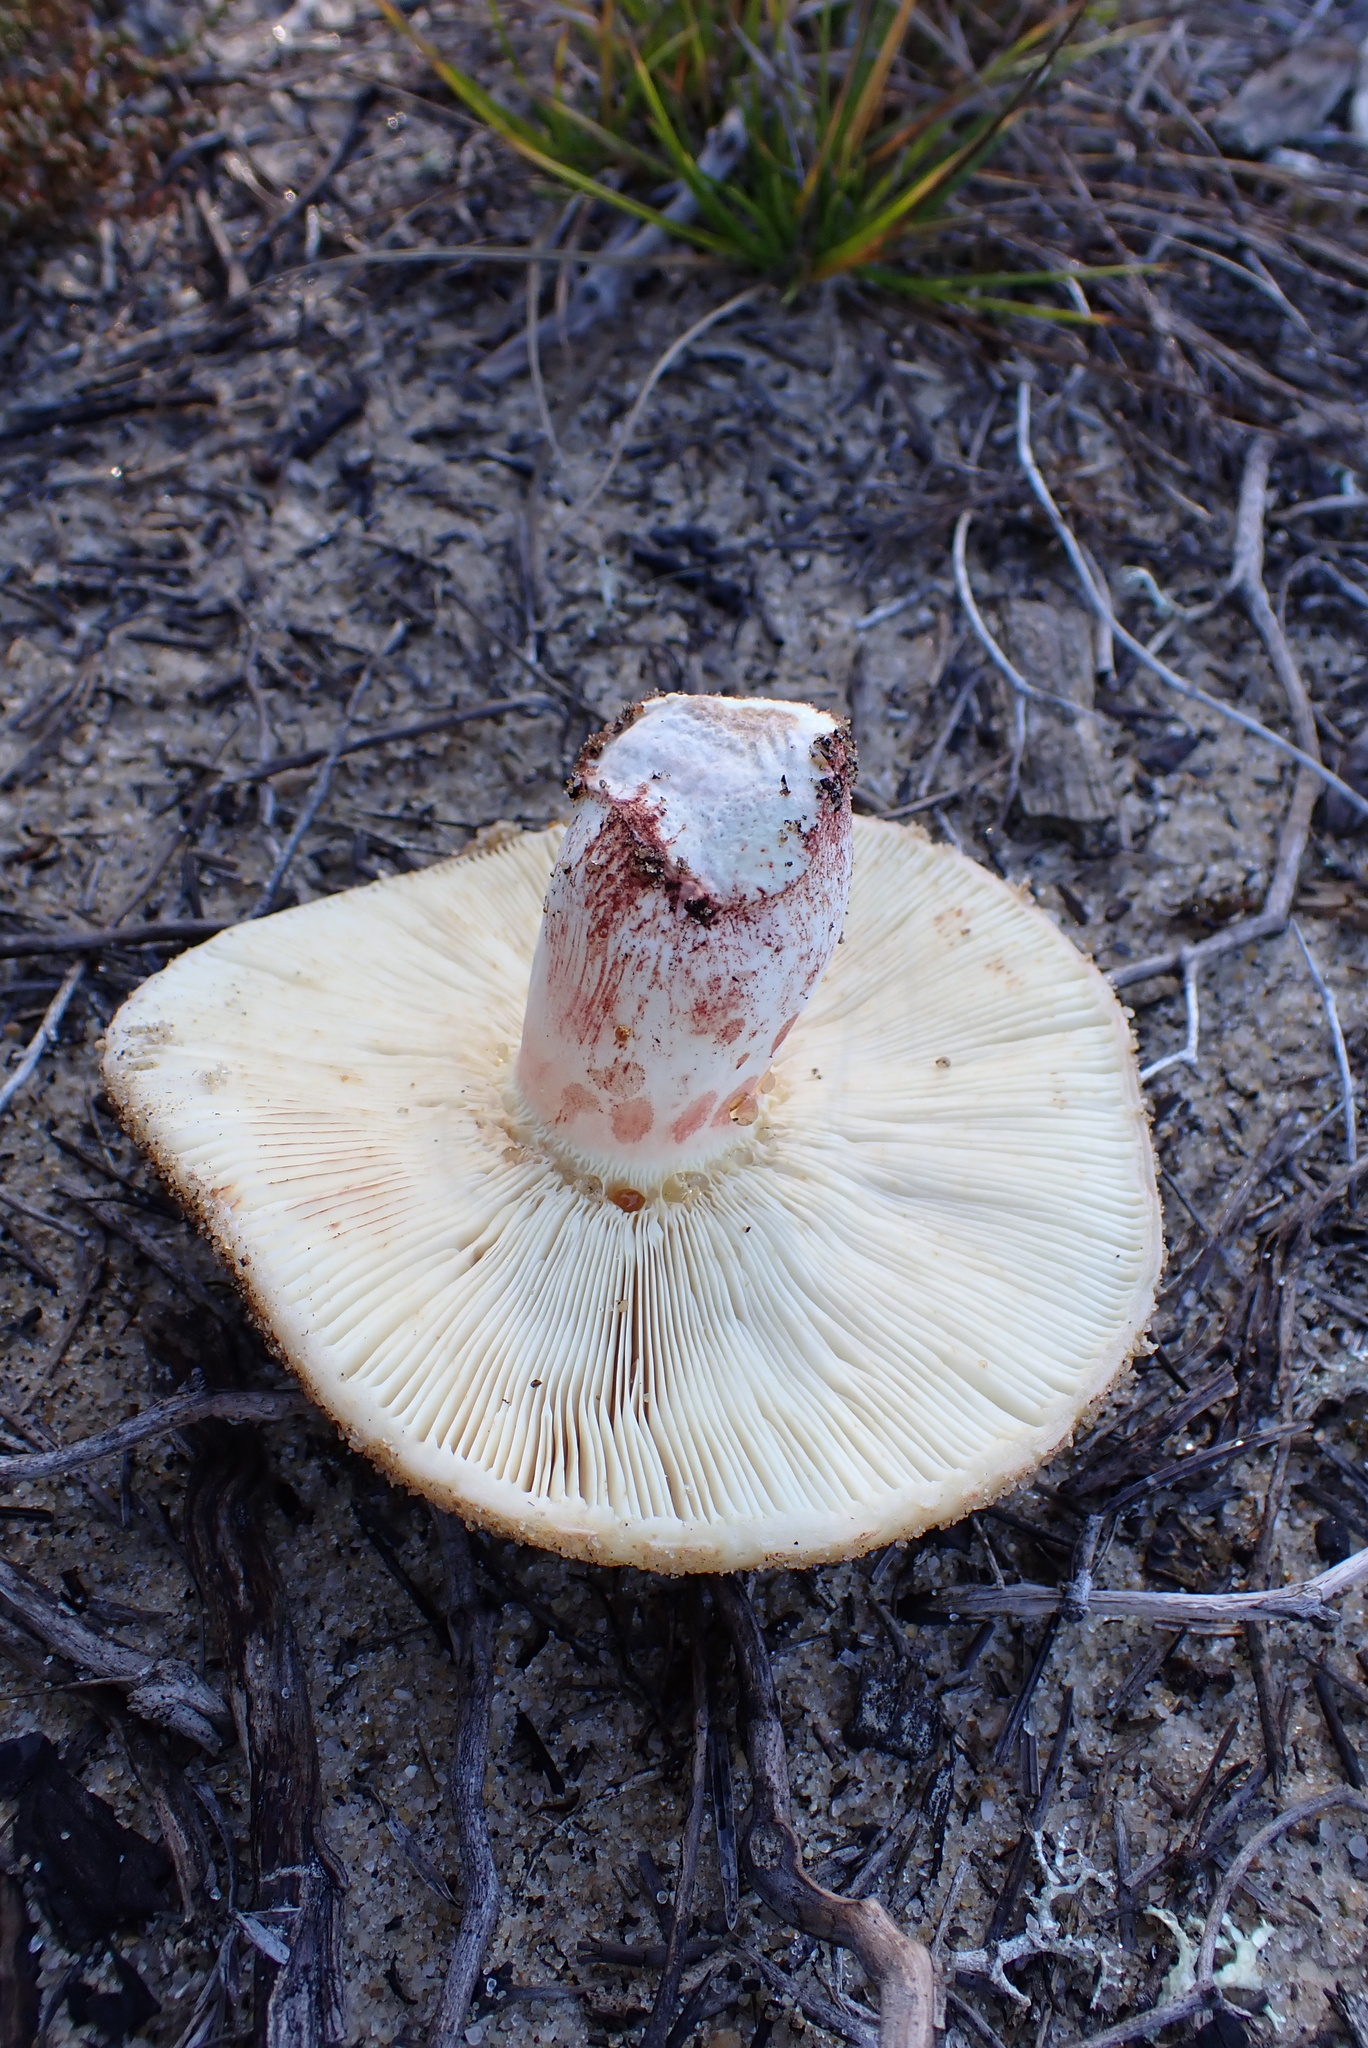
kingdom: Fungi
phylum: Basidiomycota
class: Agaricomycetes
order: Russulales
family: Russulaceae
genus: Russula
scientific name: Russula ventricosipes
